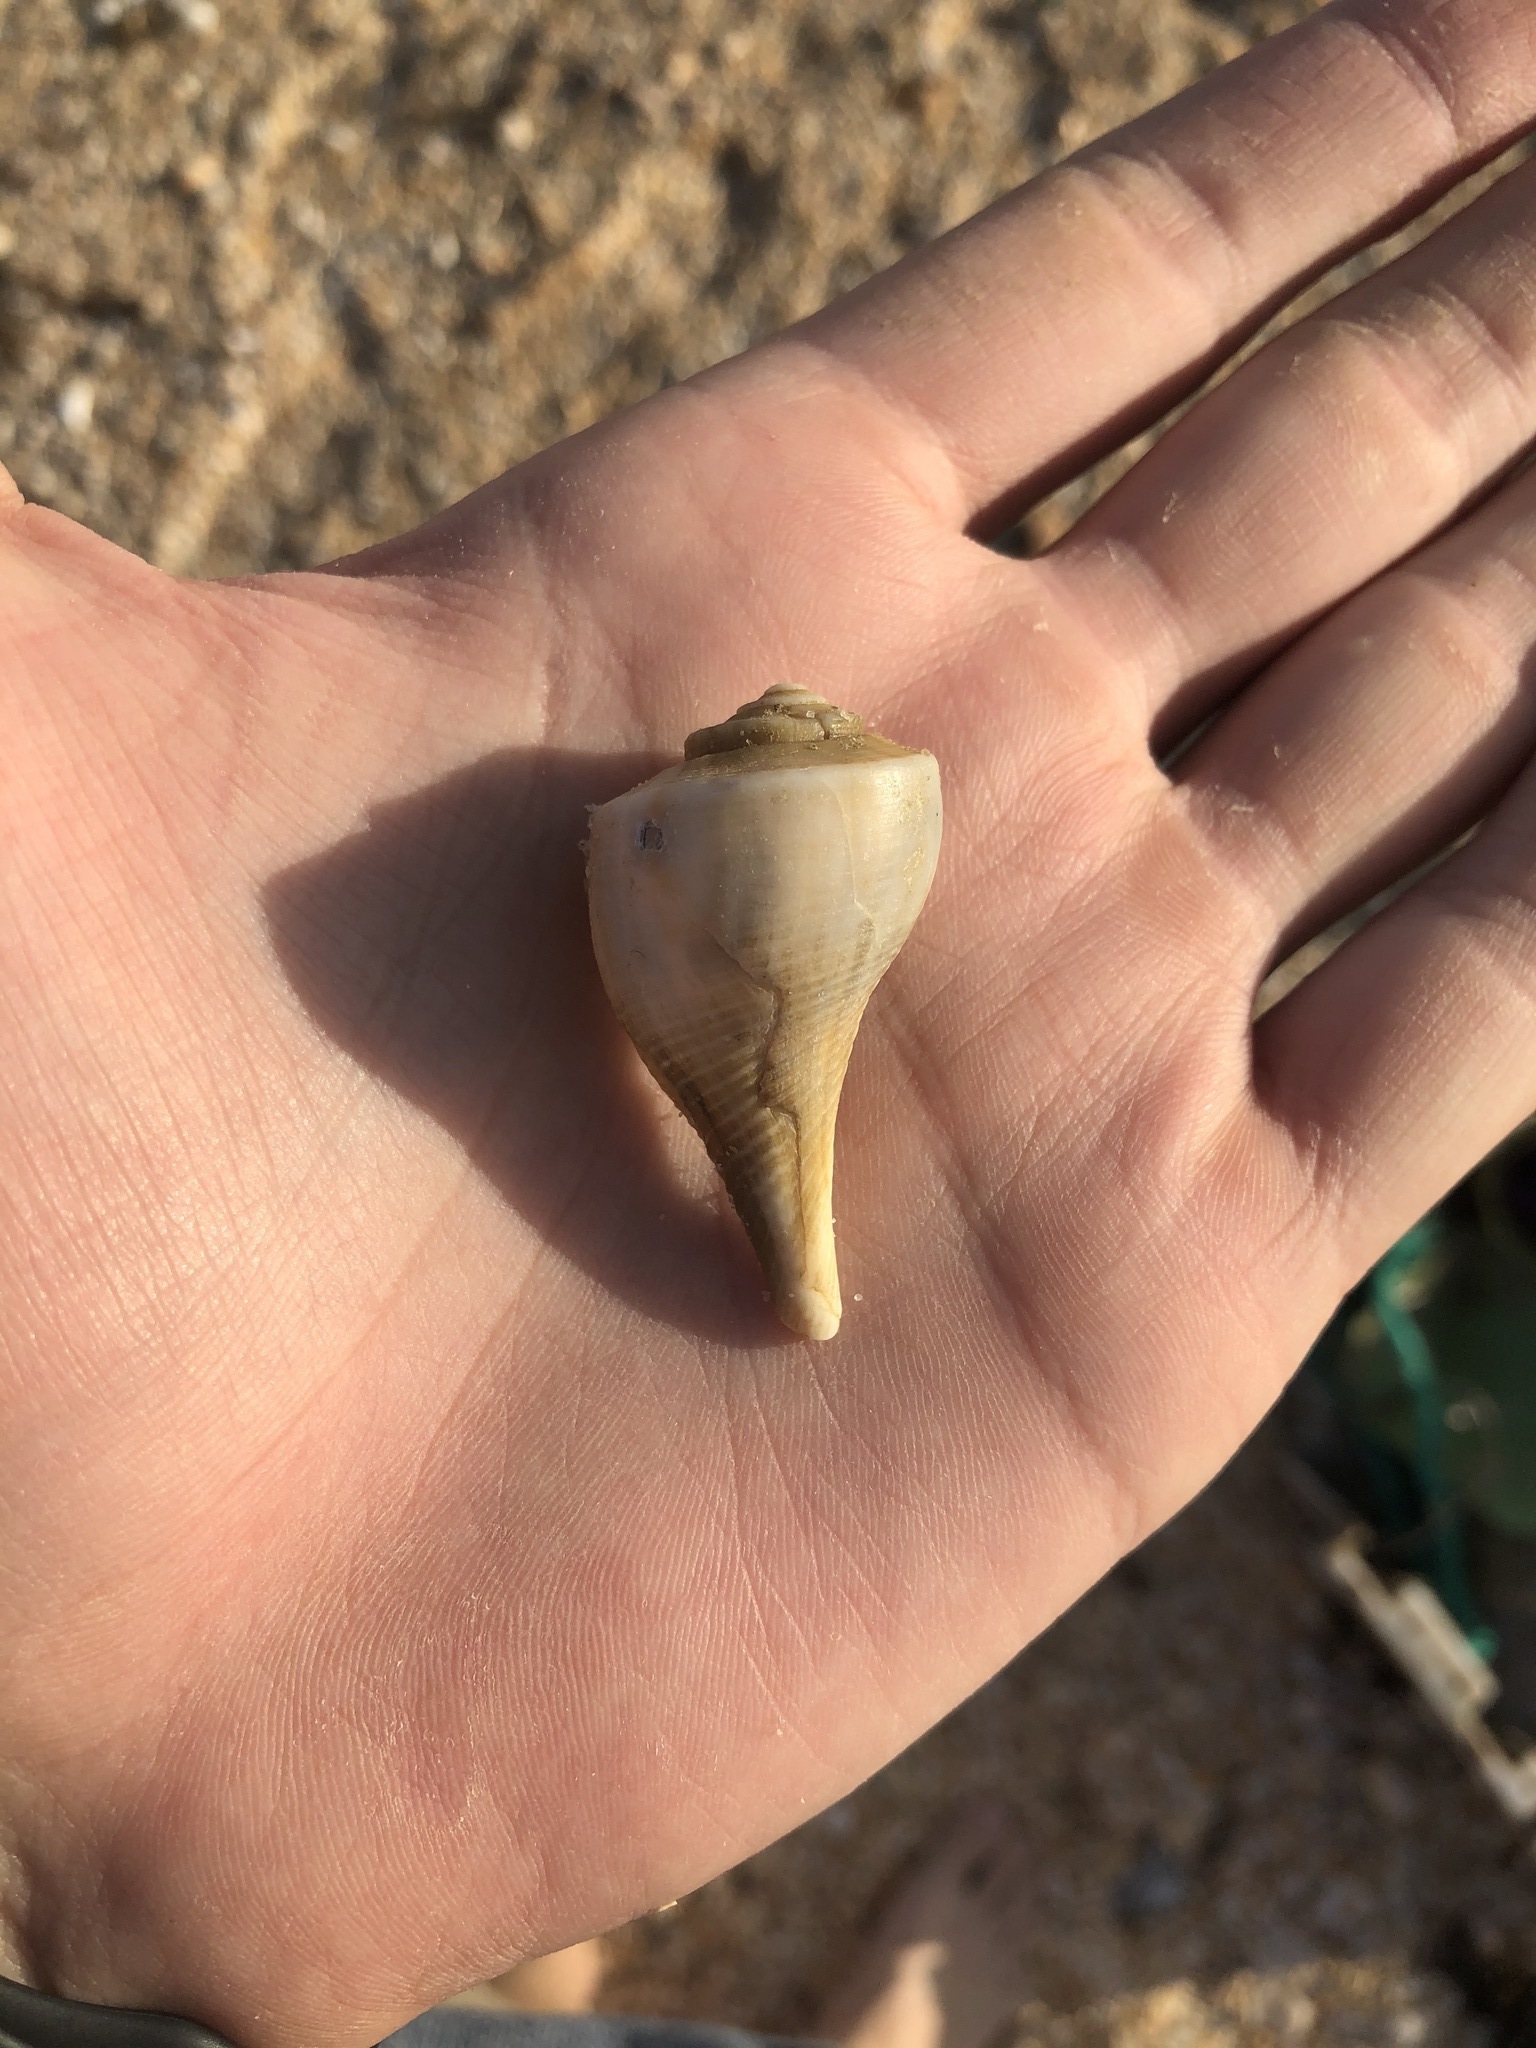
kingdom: Animalia
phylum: Mollusca
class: Gastropoda
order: Neogastropoda
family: Busyconidae
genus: Fulguropsis
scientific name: Fulguropsis pyruloides
